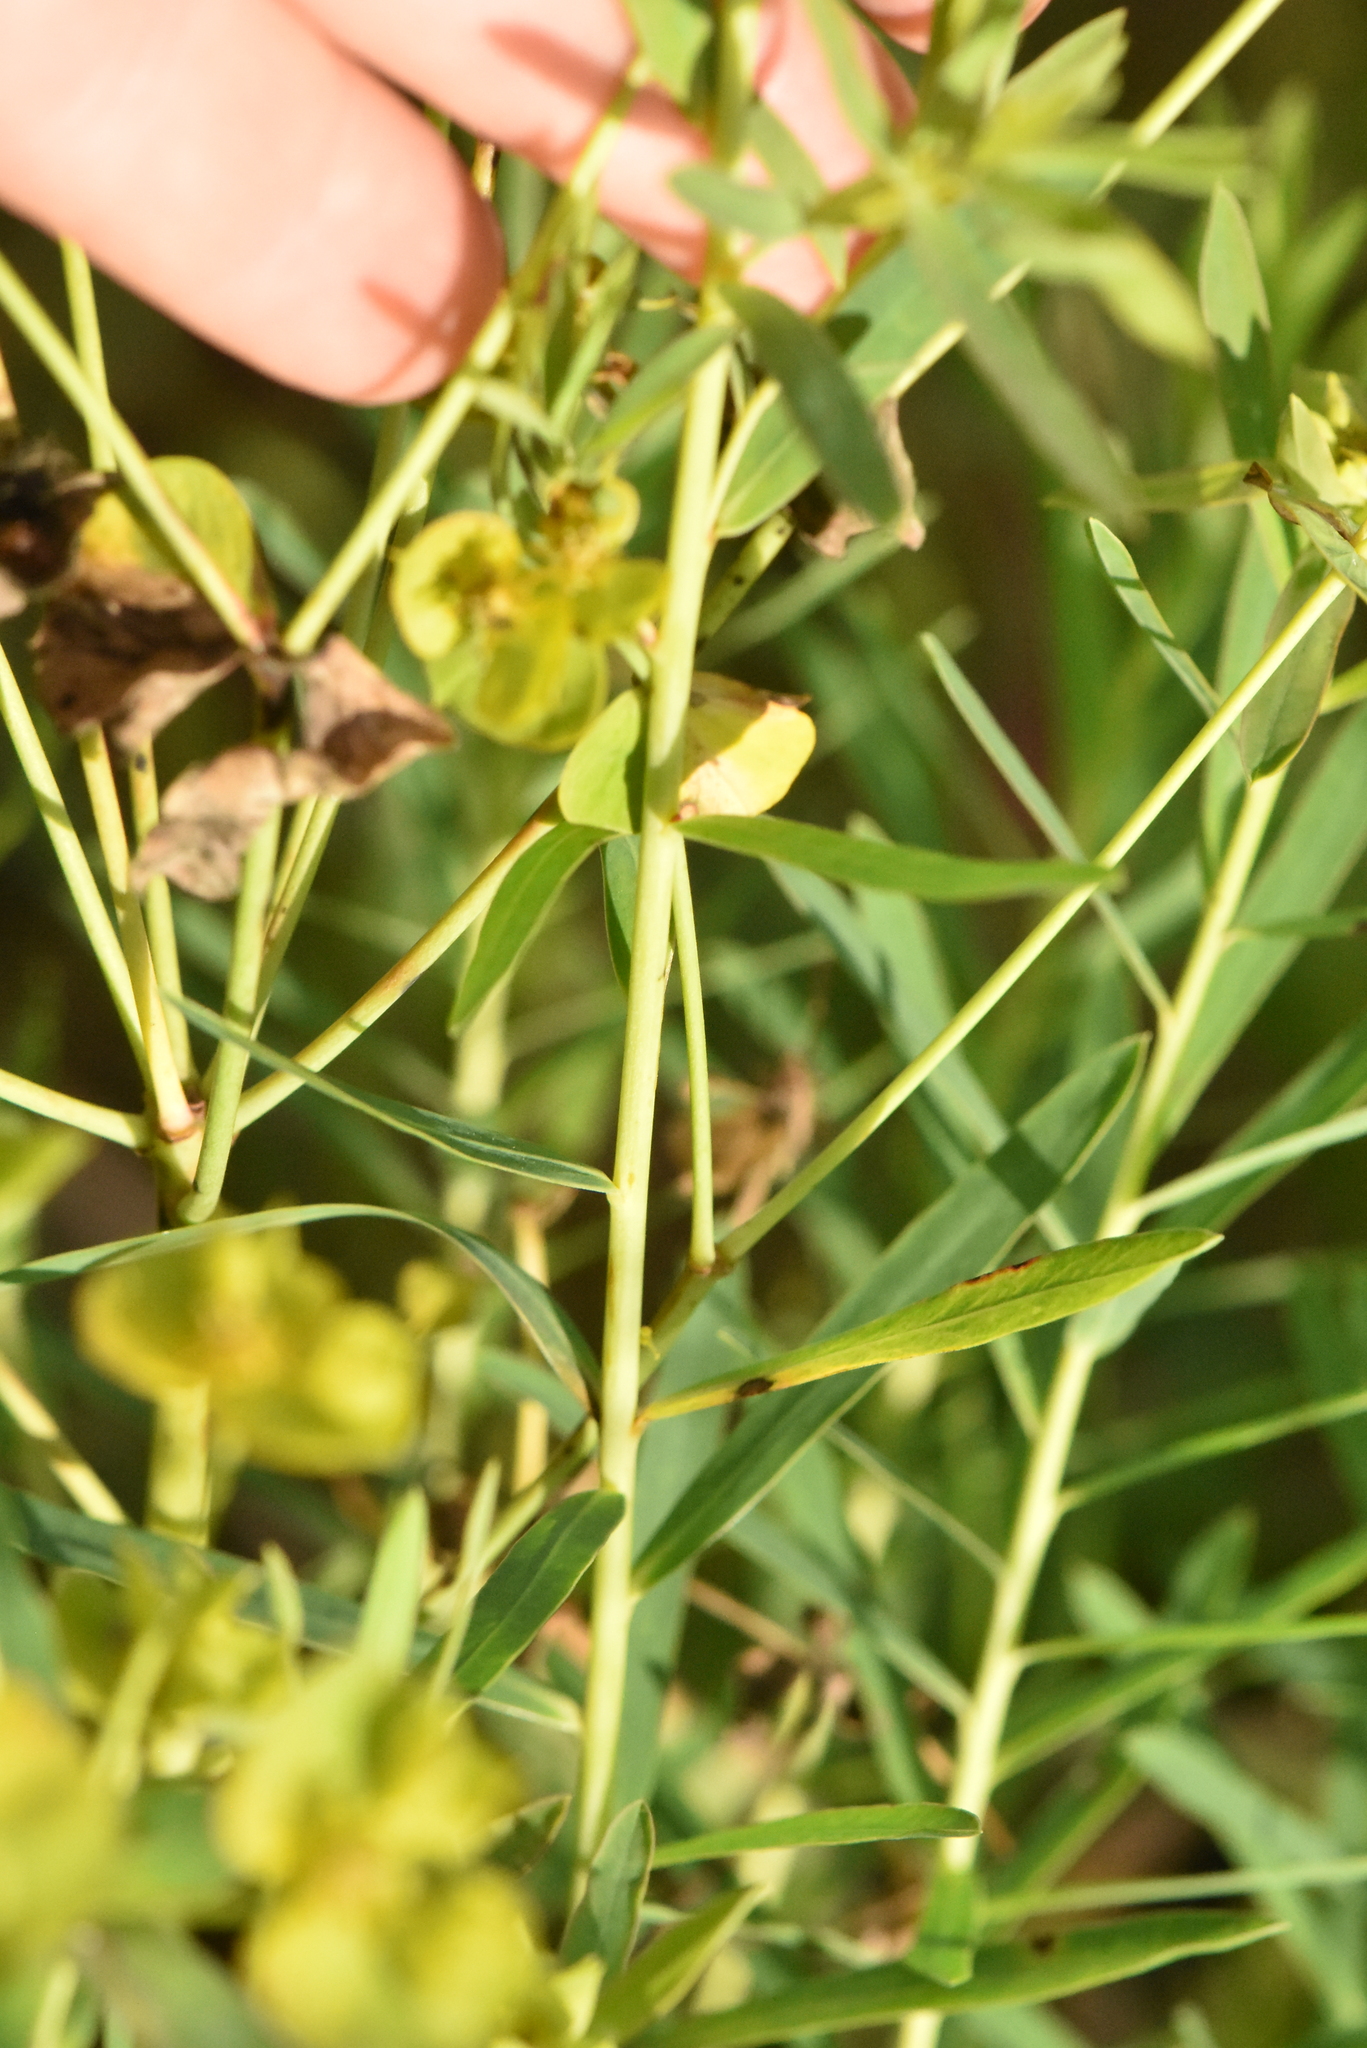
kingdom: Plantae
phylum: Tracheophyta
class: Magnoliopsida
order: Malpighiales
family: Euphorbiaceae
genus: Euphorbia
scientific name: Euphorbia virgata
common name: Leafy spurge
